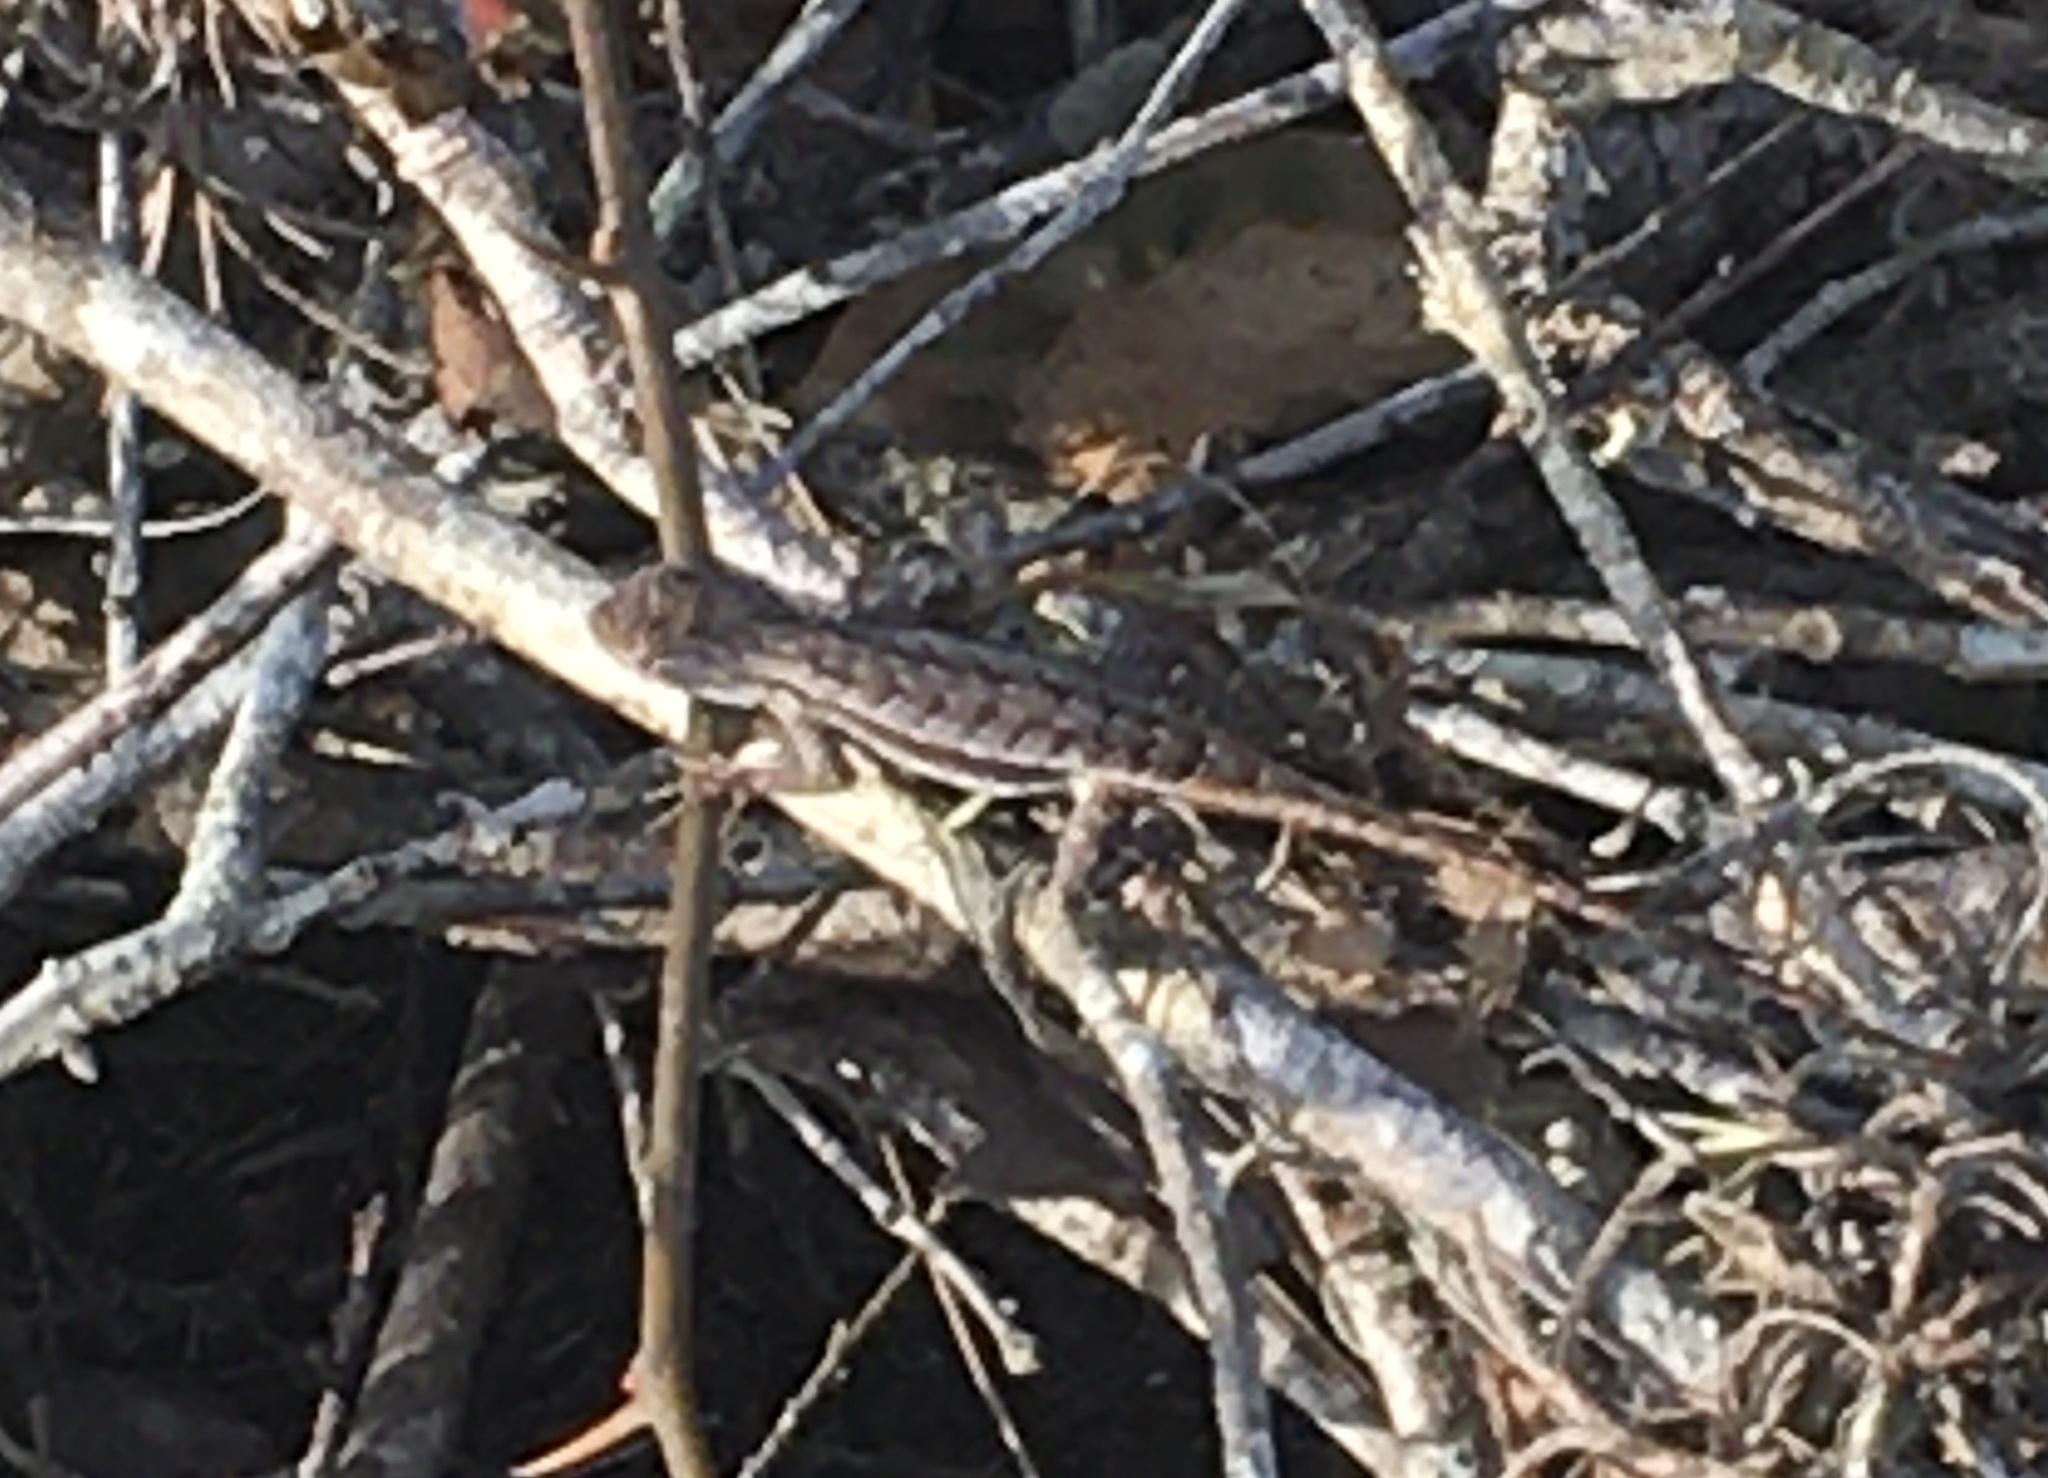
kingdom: Animalia
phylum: Chordata
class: Squamata
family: Phrynosomatidae
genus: Sceloporus
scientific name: Sceloporus woodi
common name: Florida scrub lizard
